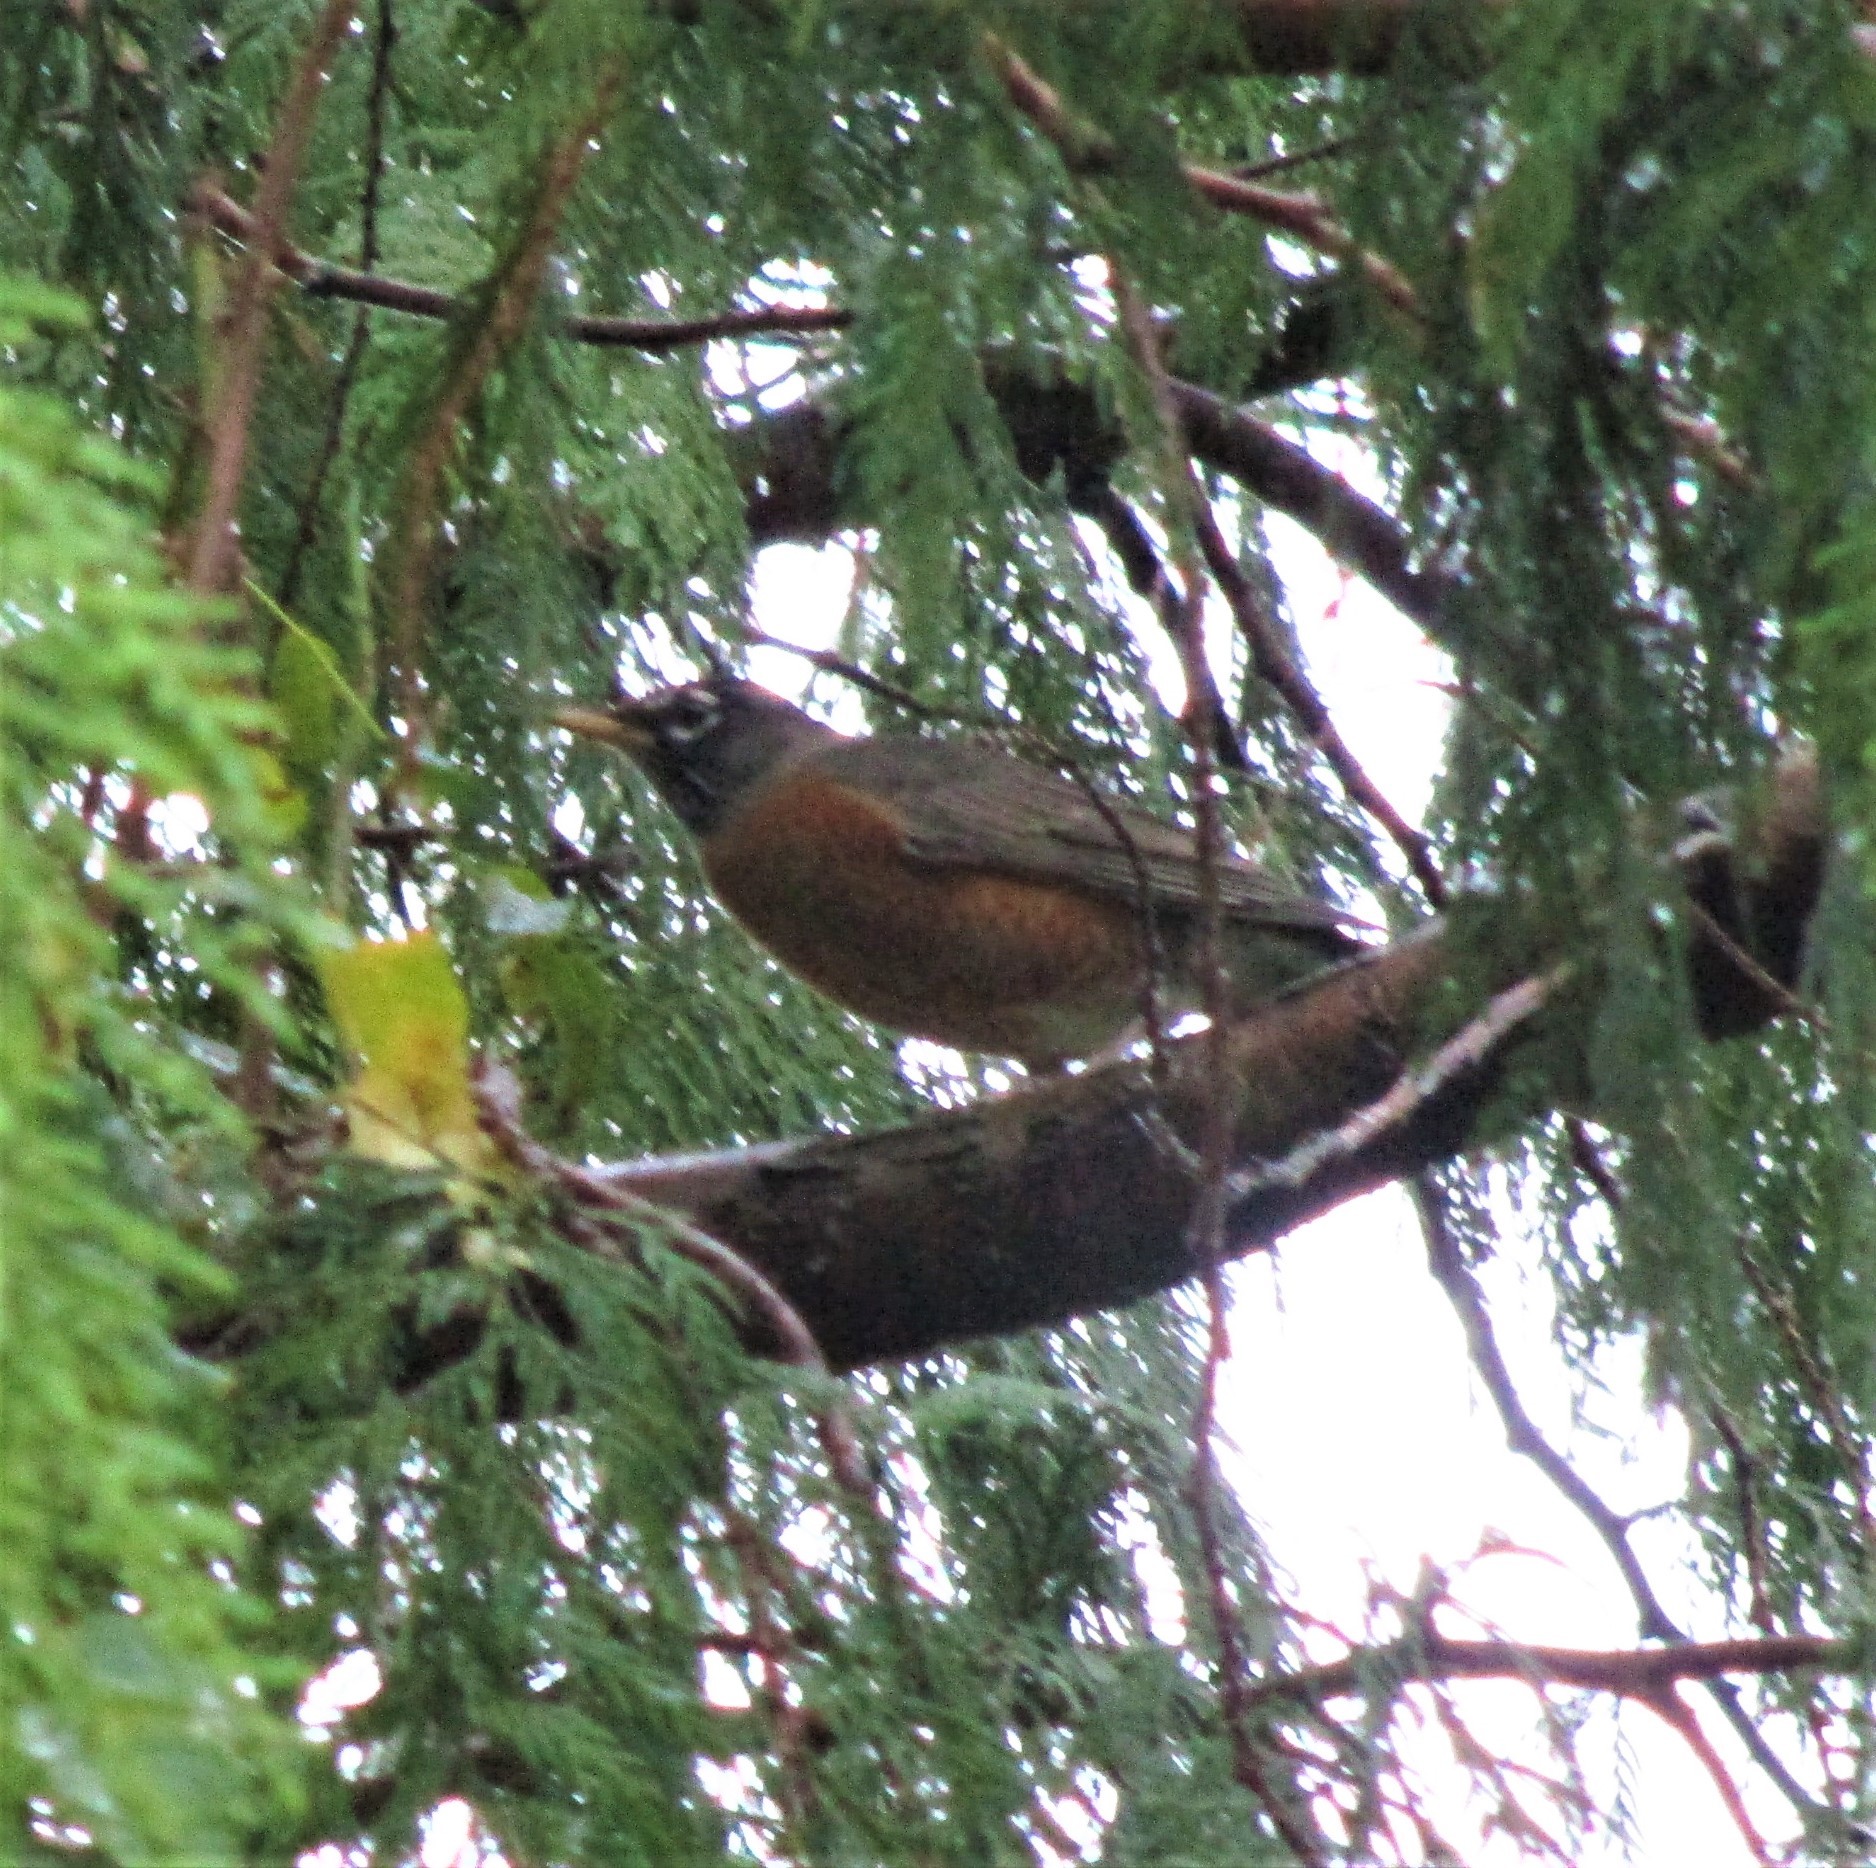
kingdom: Animalia
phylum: Chordata
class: Aves
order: Passeriformes
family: Turdidae
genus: Turdus
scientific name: Turdus migratorius
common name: American robin
